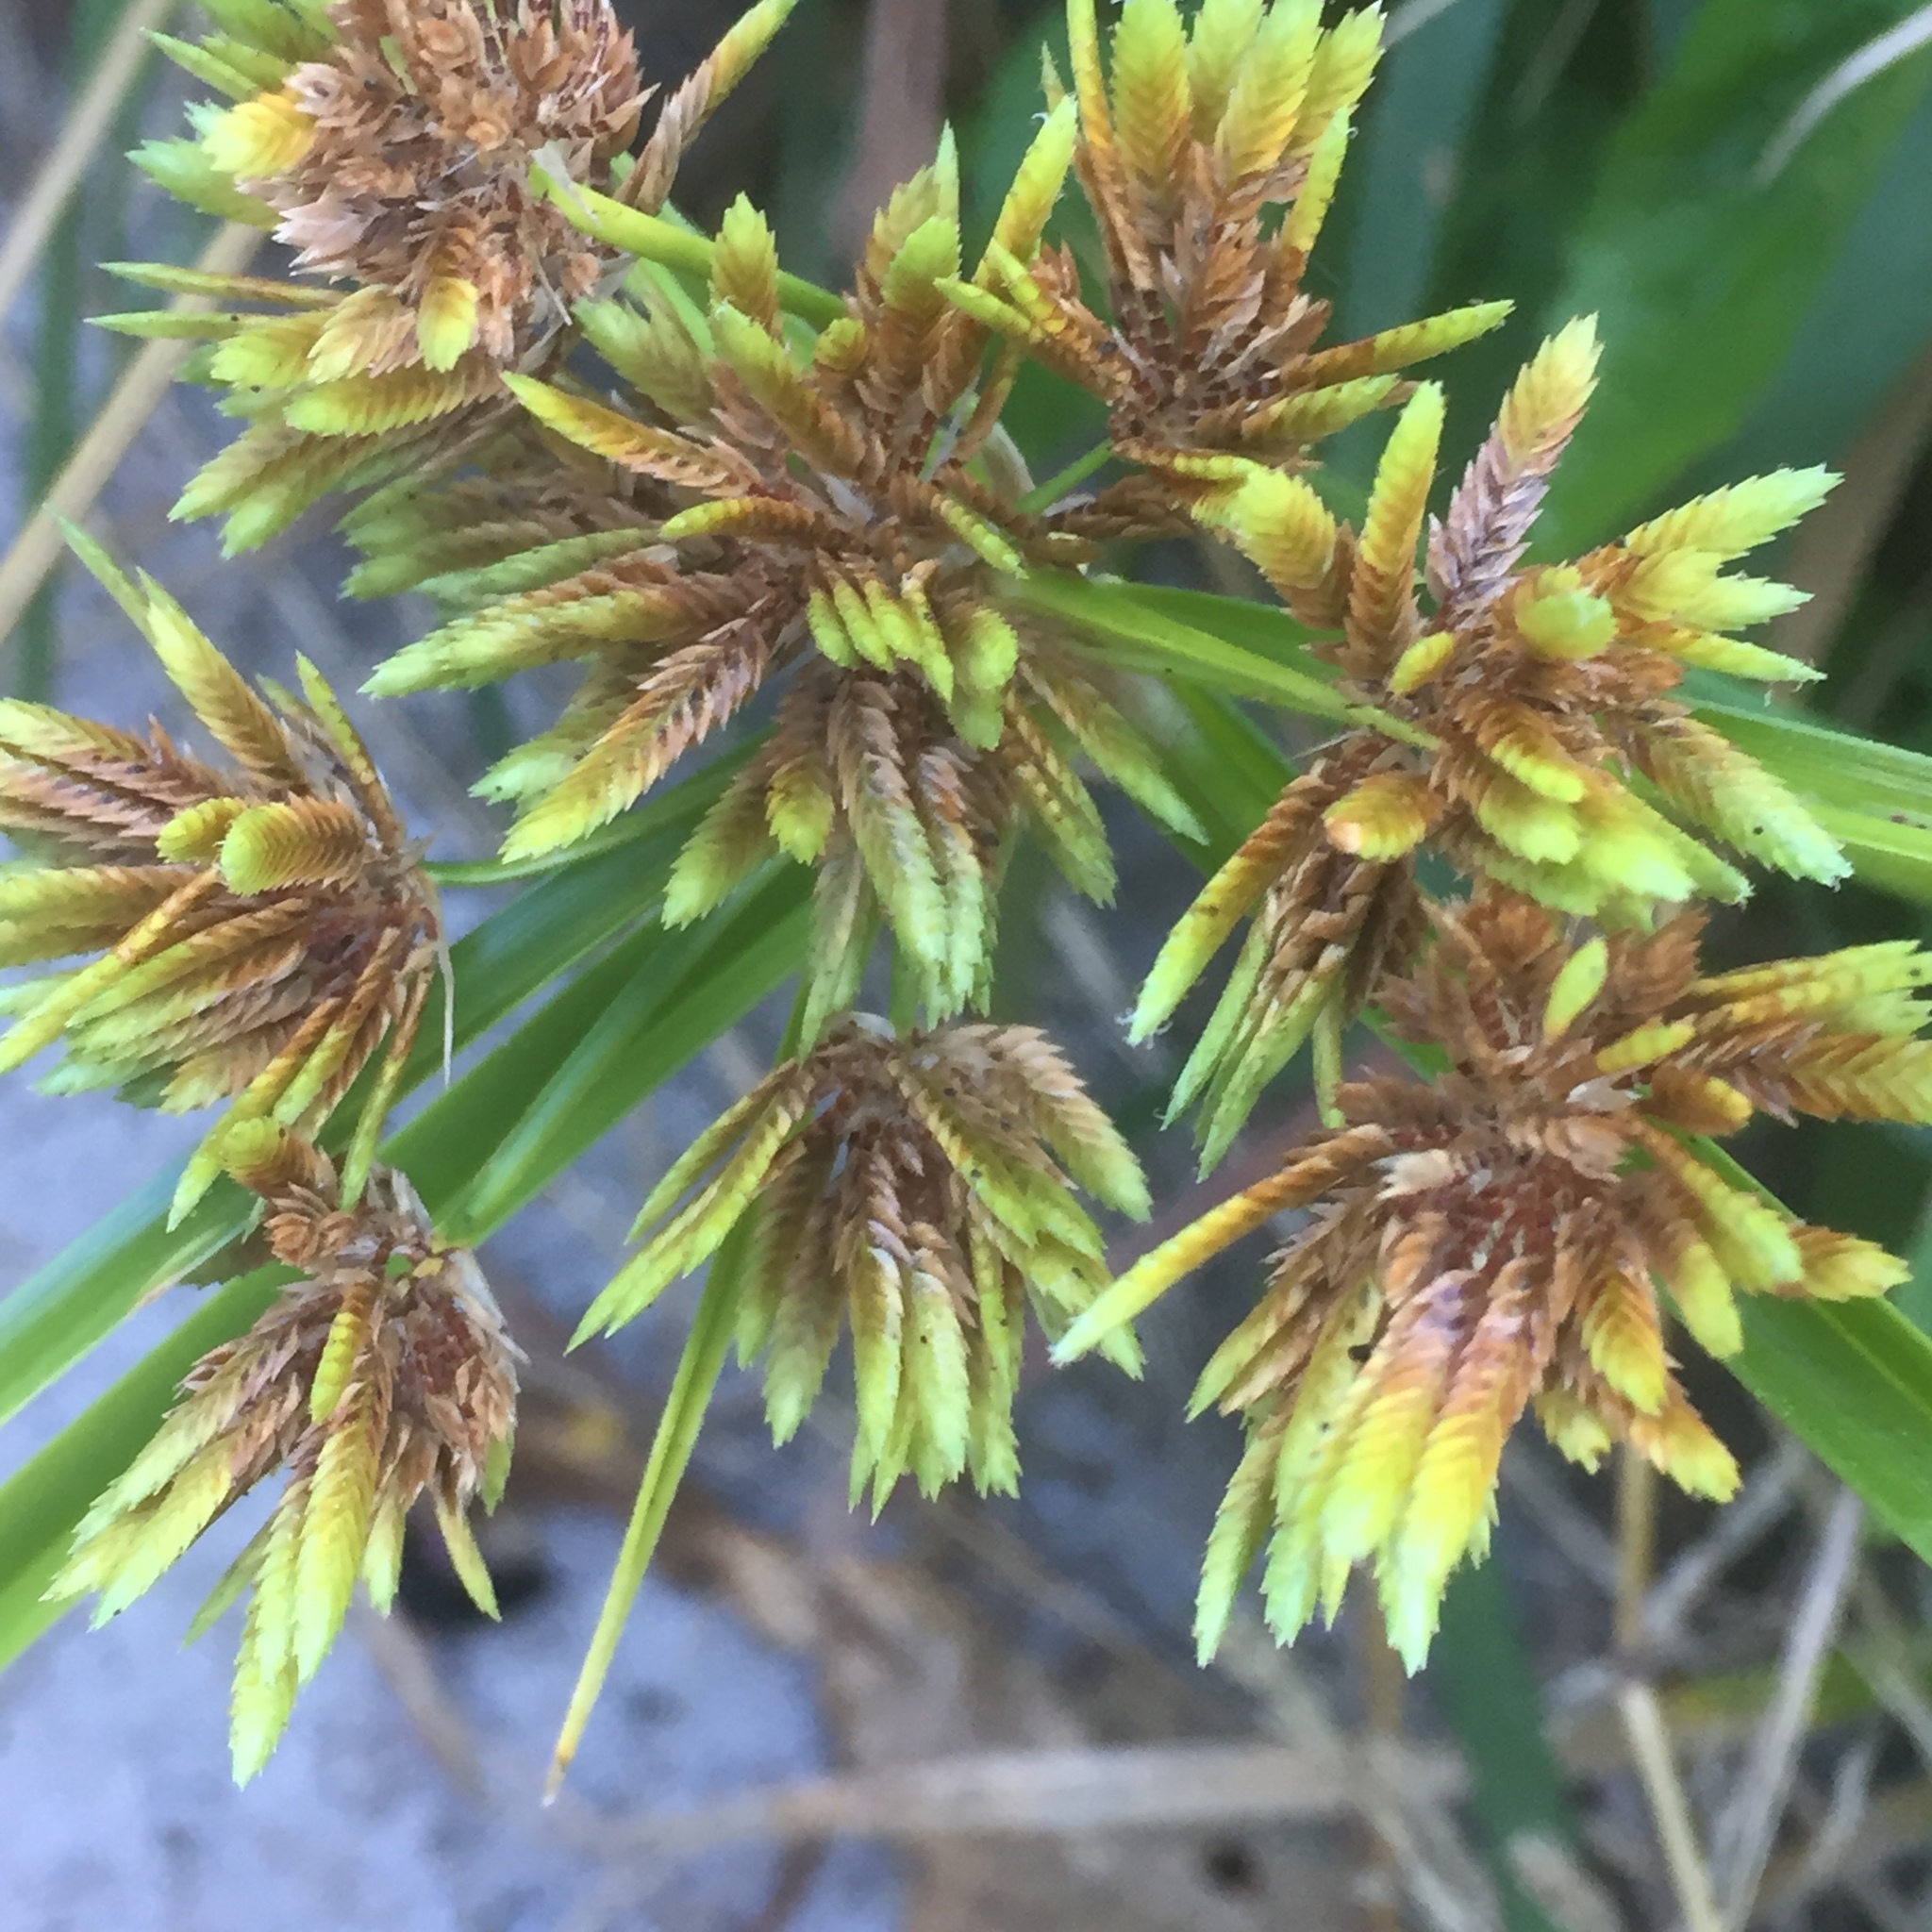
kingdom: Plantae
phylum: Tracheophyta
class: Liliopsida
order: Poales
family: Cyperaceae
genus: Cyperus
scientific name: Cyperus eragrostis
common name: Tall flatsedge
